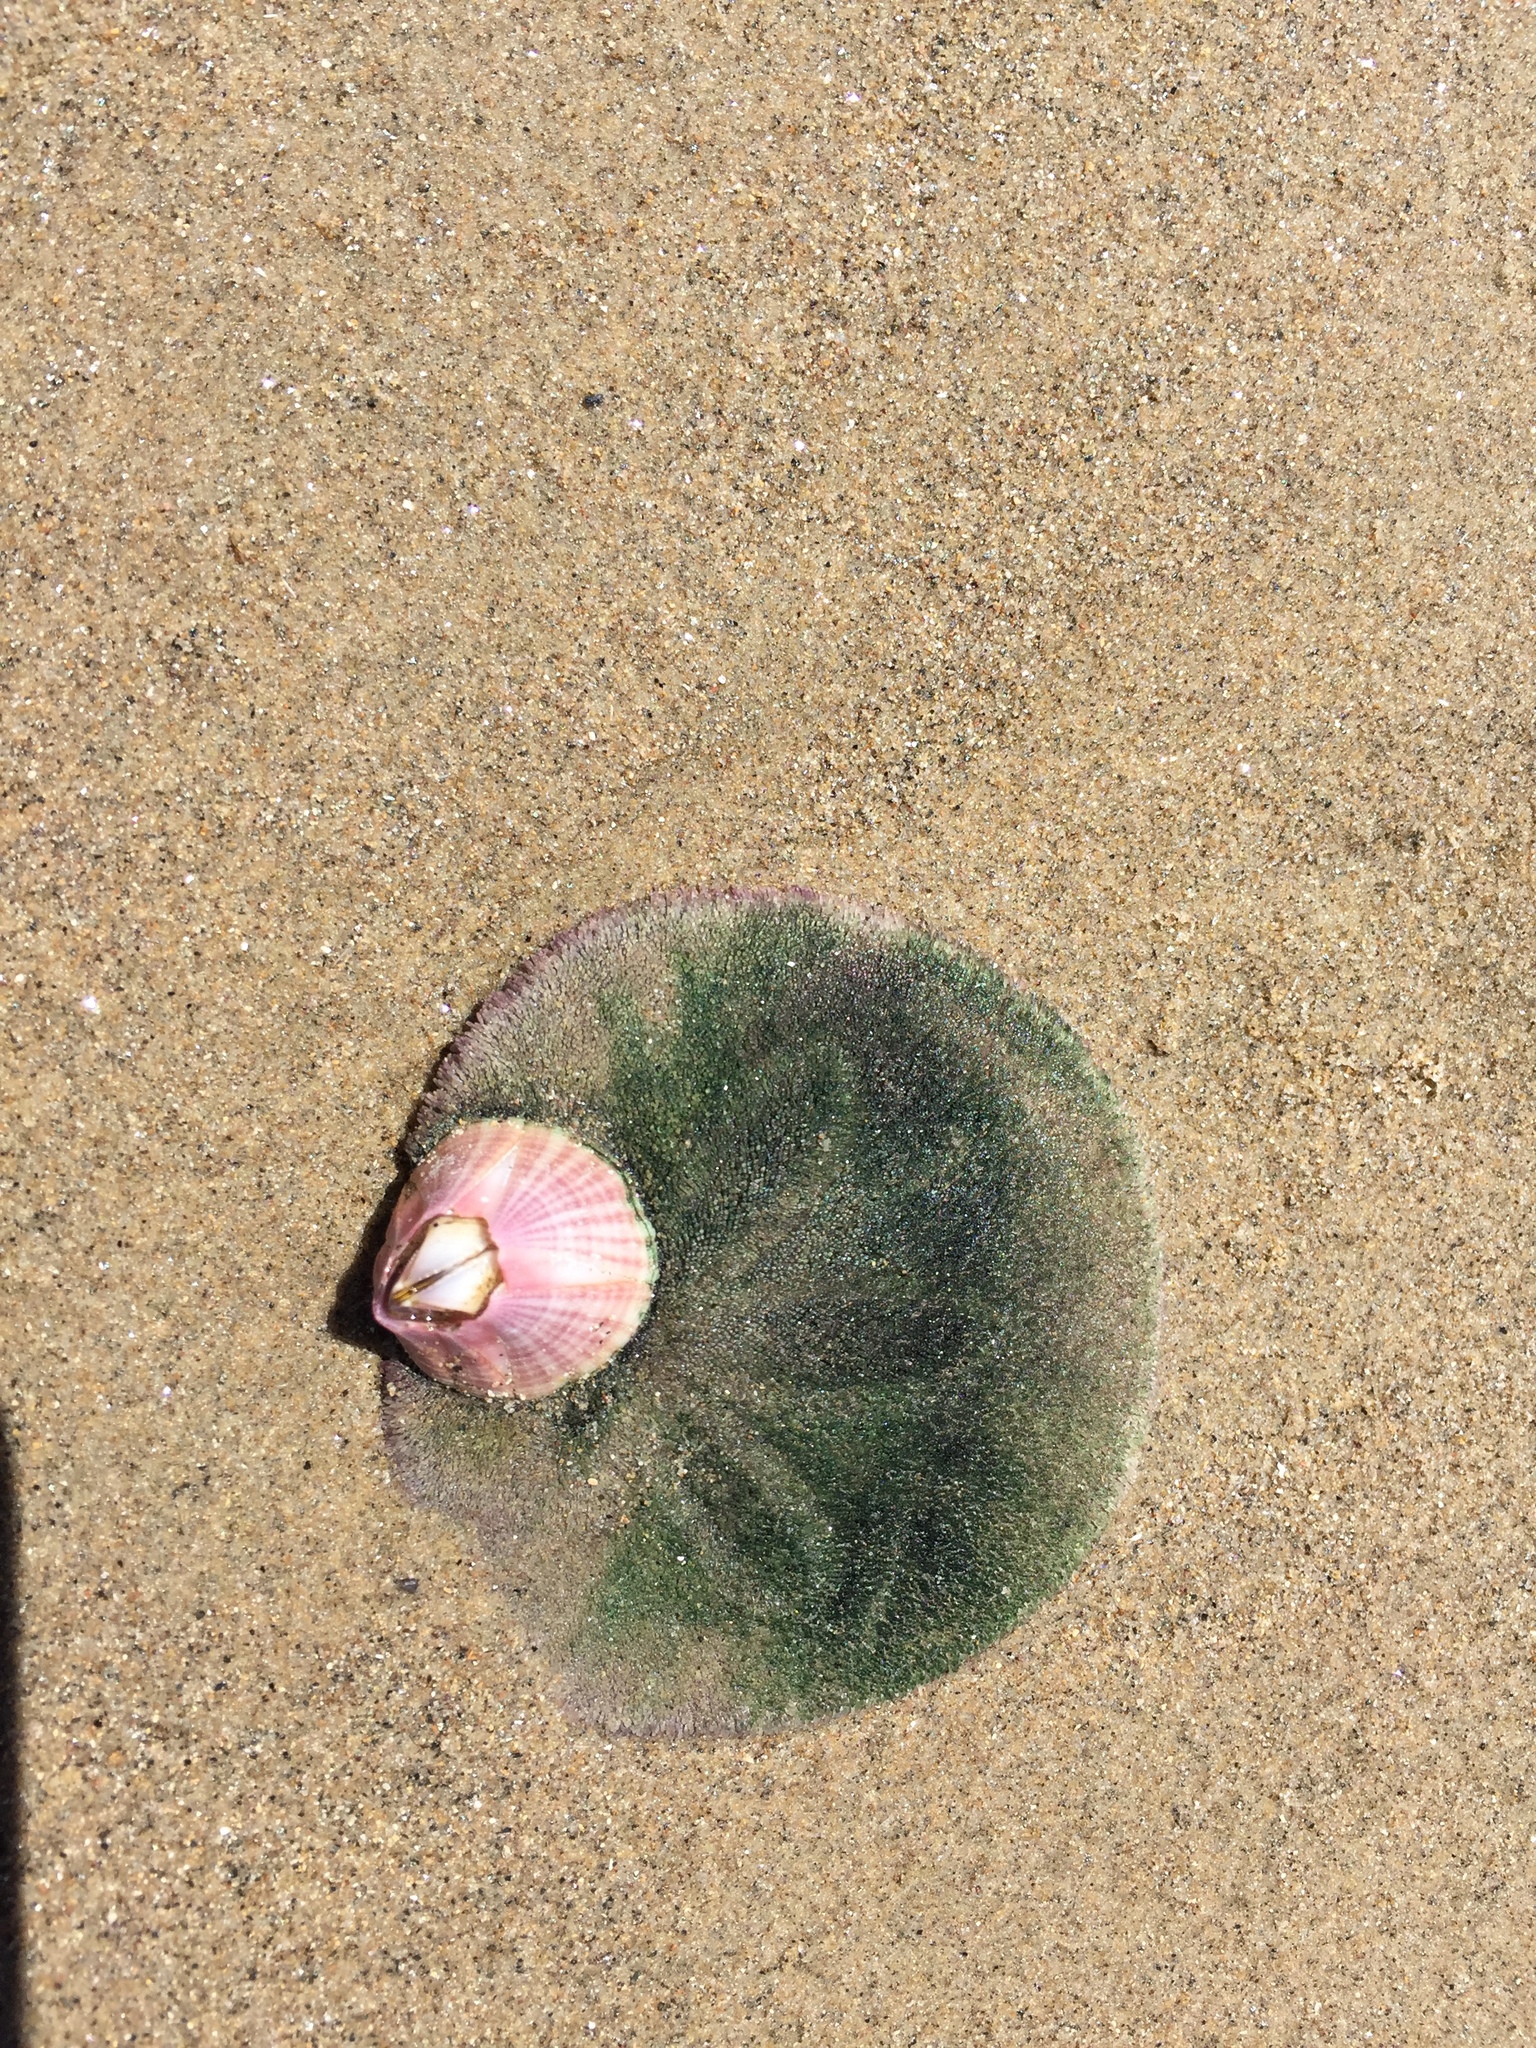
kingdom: Animalia
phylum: Arthropoda
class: Maxillopoda
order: Sessilia
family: Balanidae
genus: Paraconcavus
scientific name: Paraconcavus pacificus
